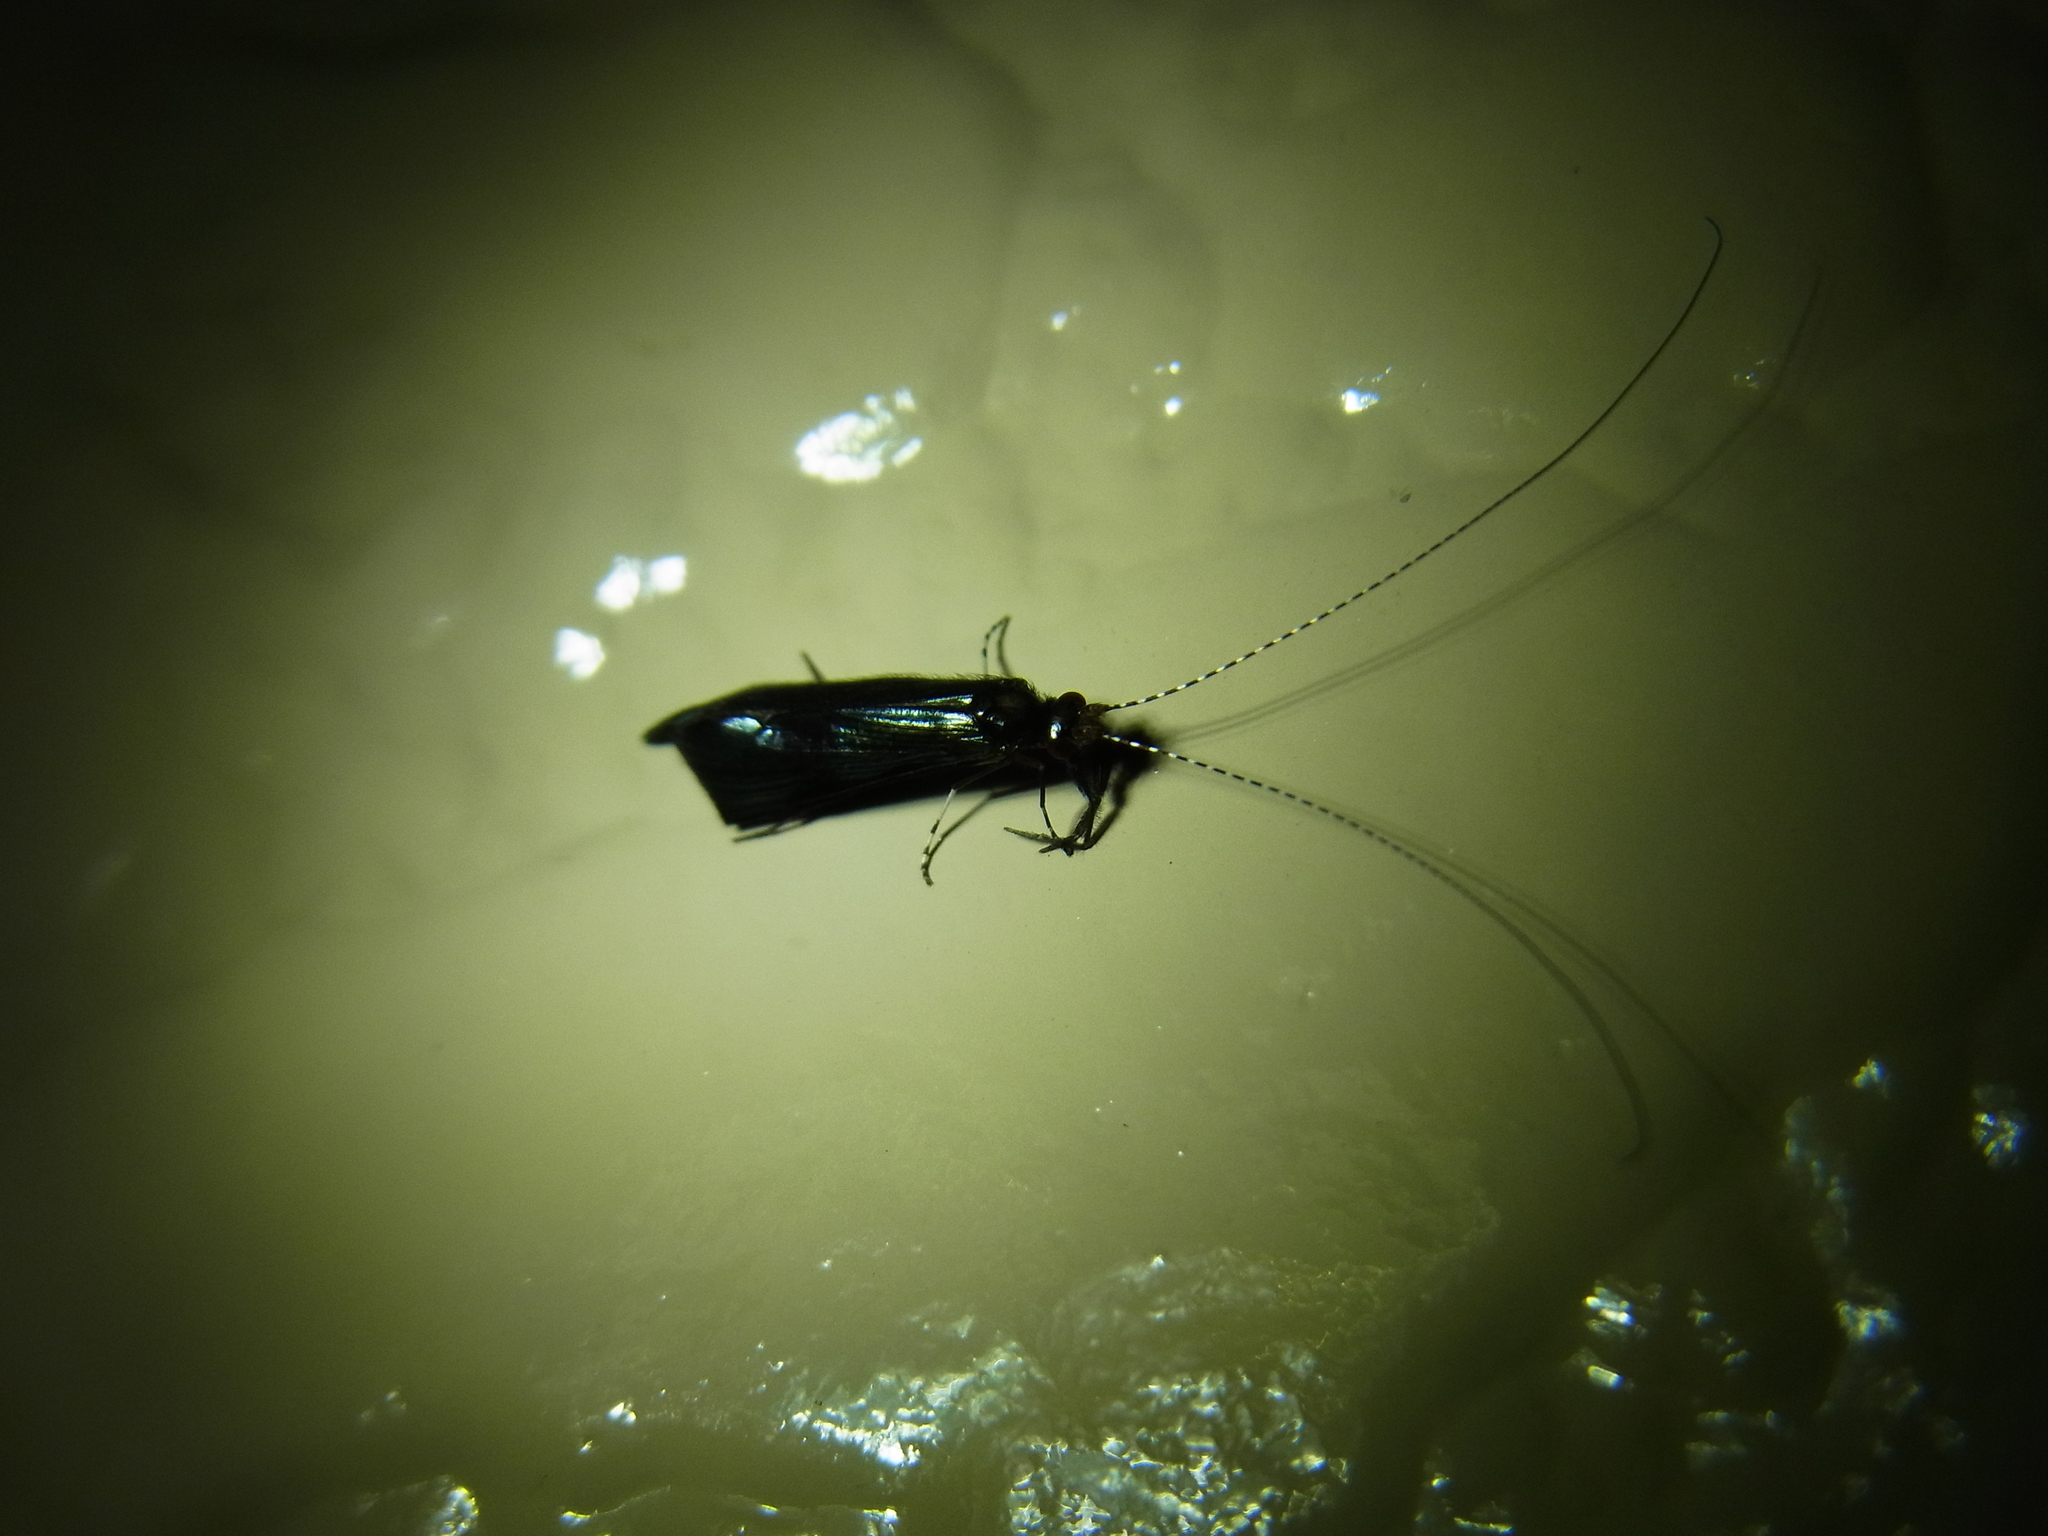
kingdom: Animalia
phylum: Arthropoda
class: Insecta
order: Trichoptera
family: Leptoceridae
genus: Mystacides
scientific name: Mystacides azureus
